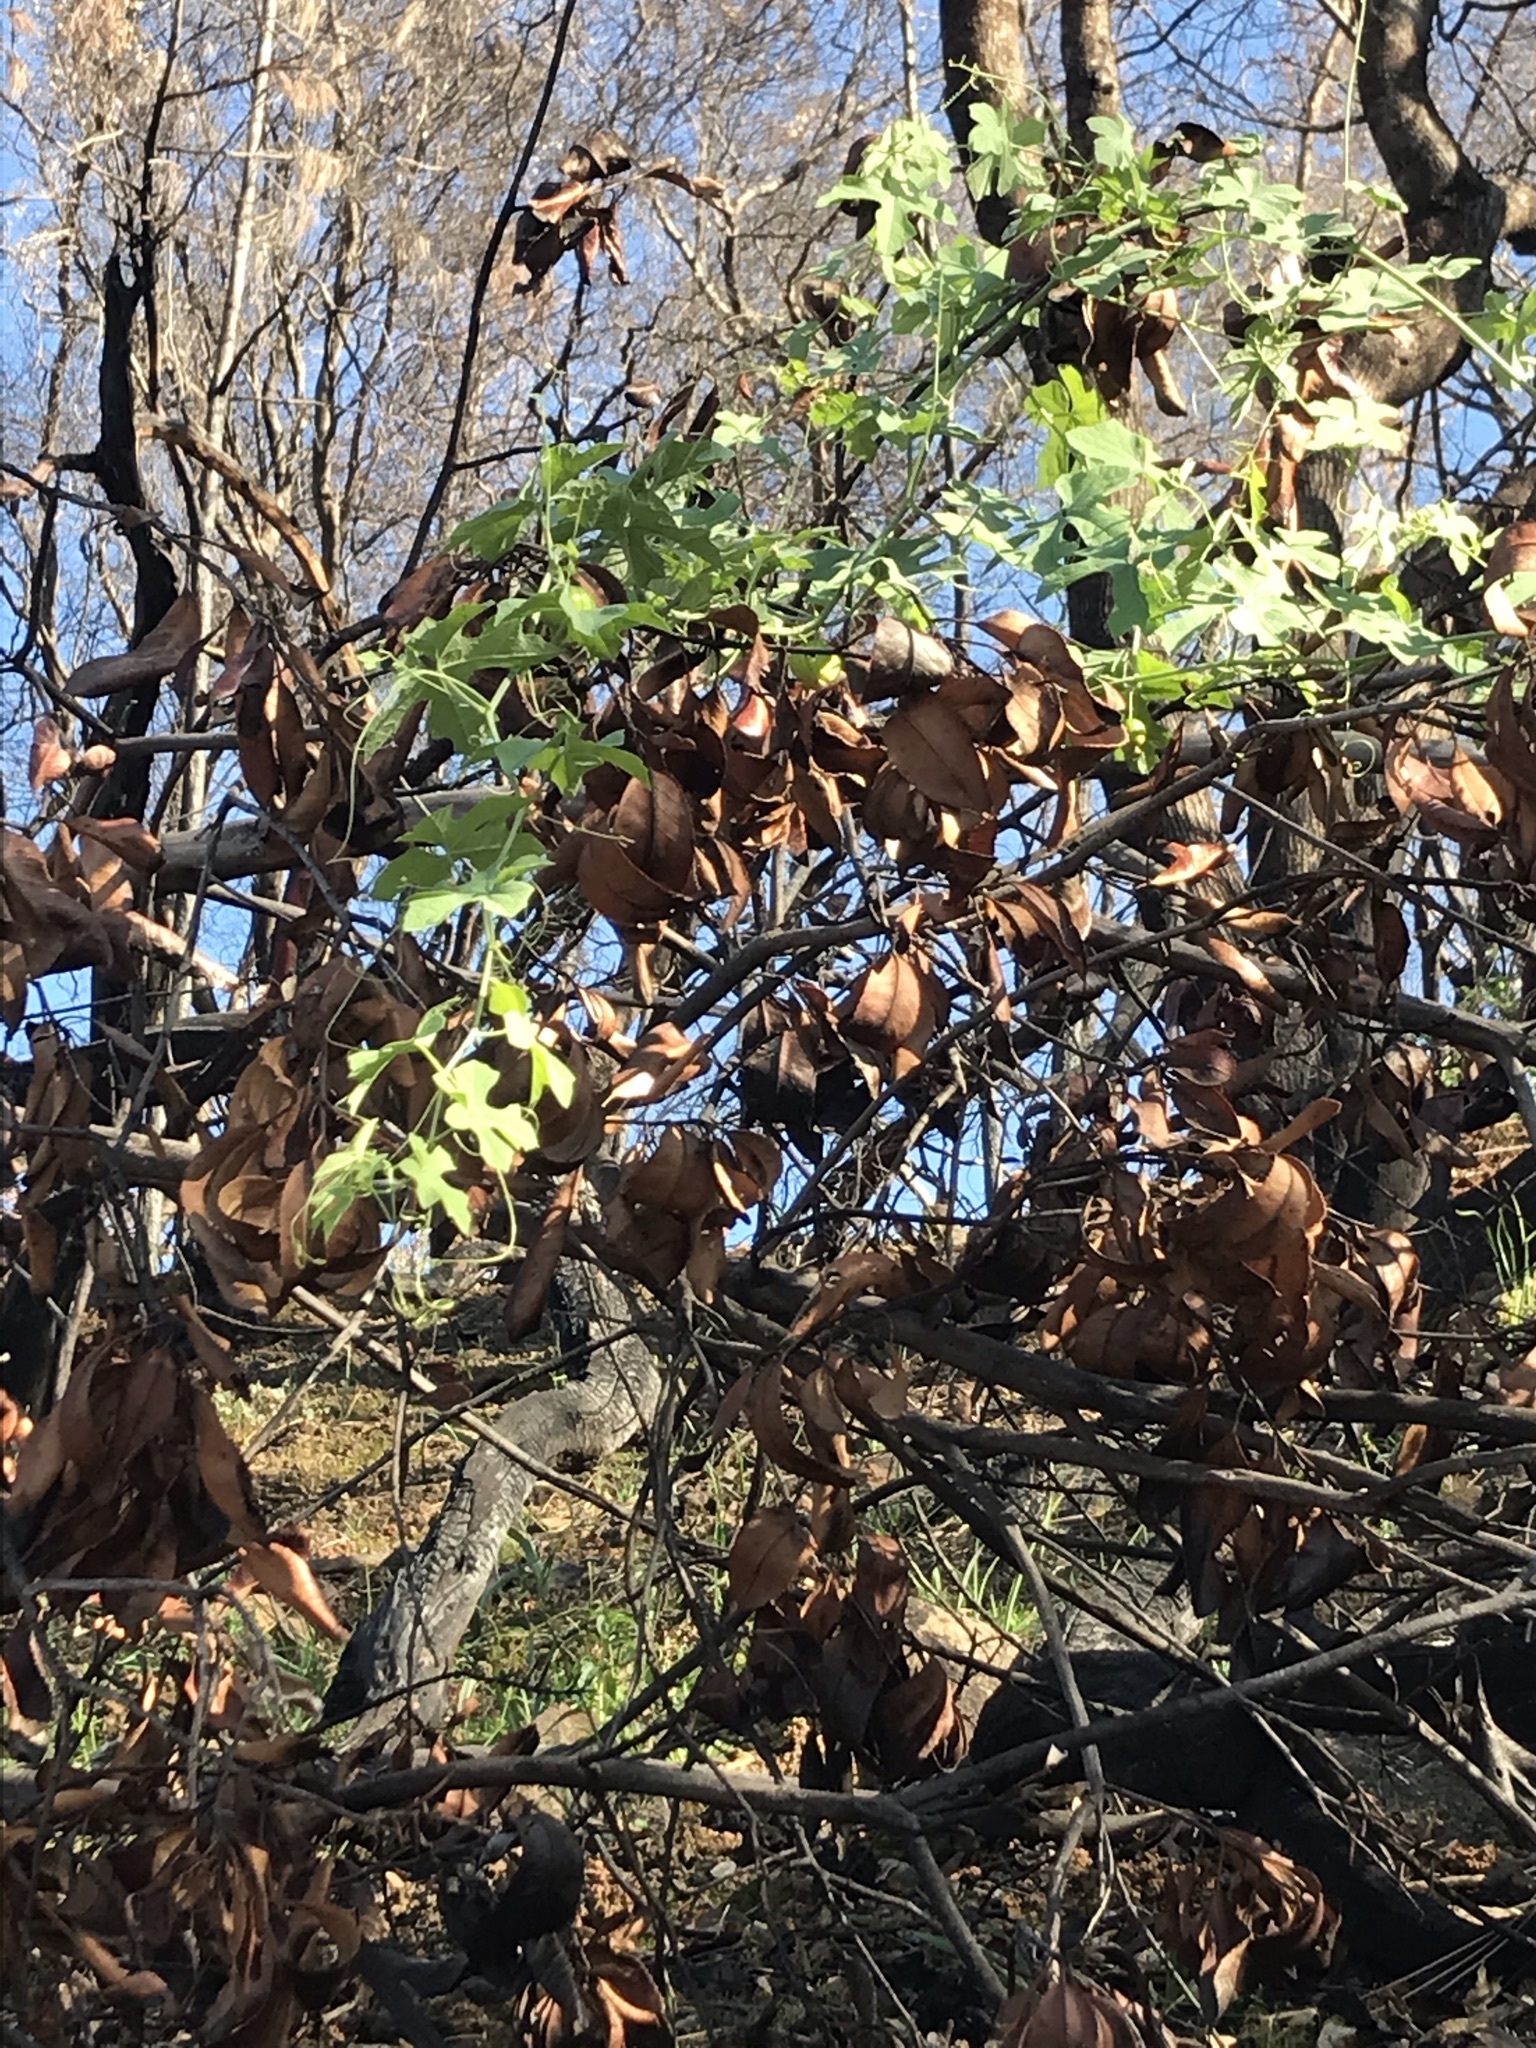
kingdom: Plantae
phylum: Tracheophyta
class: Magnoliopsida
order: Cucurbitales
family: Cucurbitaceae
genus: Marah
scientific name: Marah watsonii
